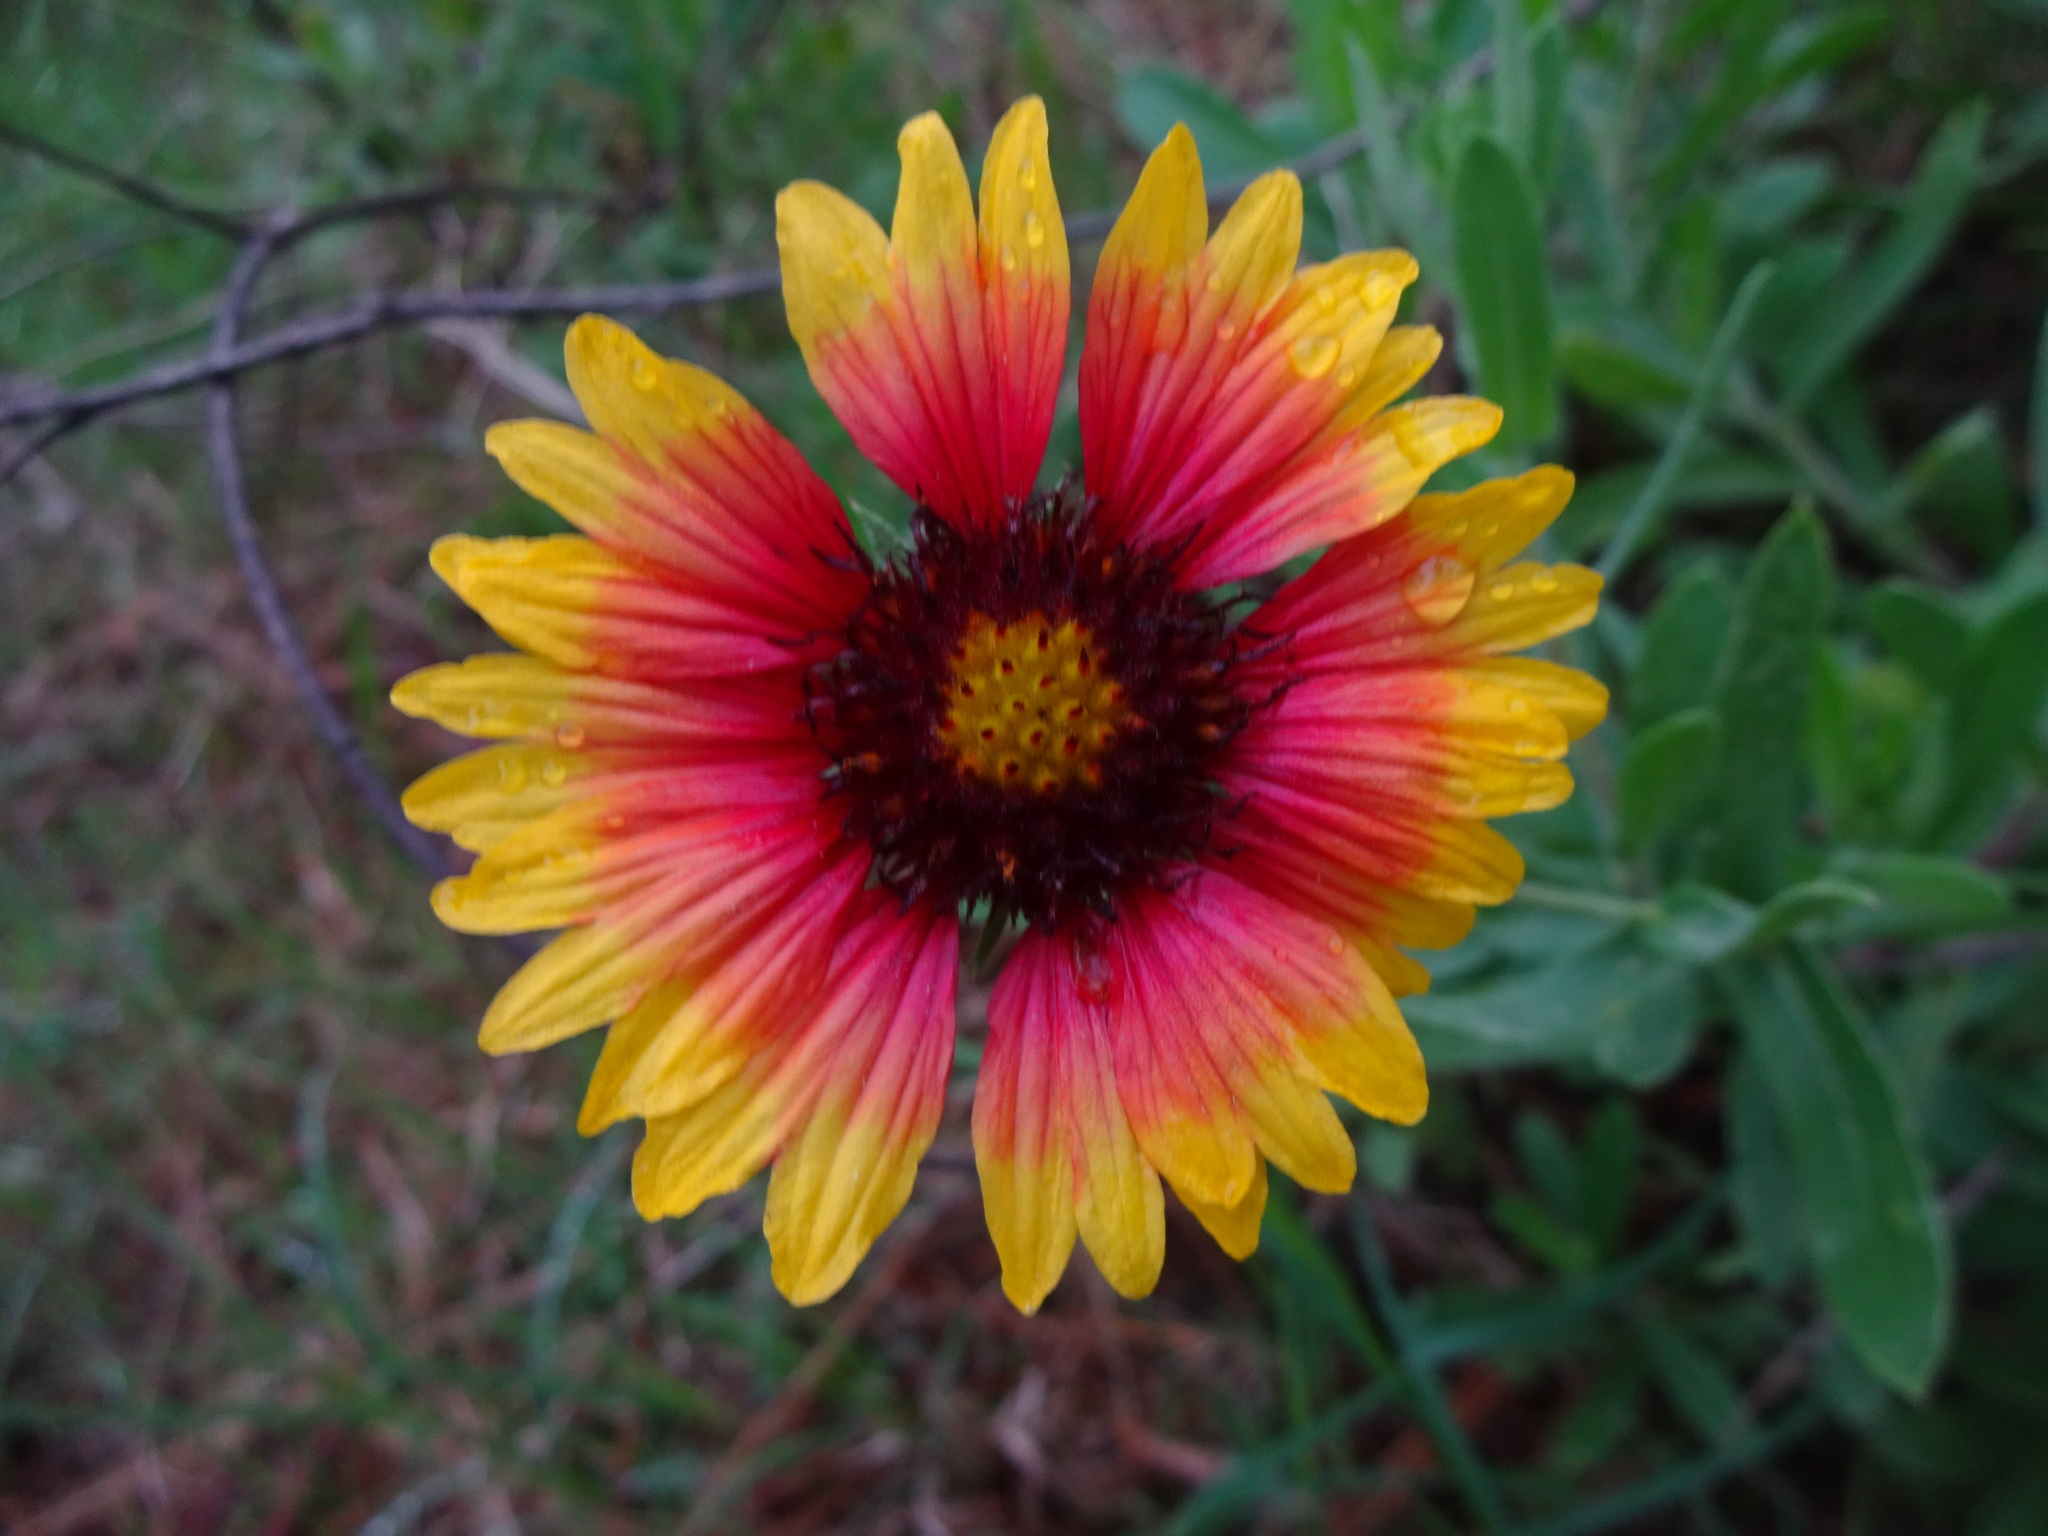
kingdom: Plantae
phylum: Tracheophyta
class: Magnoliopsida
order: Asterales
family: Asteraceae
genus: Gaillardia
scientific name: Gaillardia pulchella
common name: Firewheel
